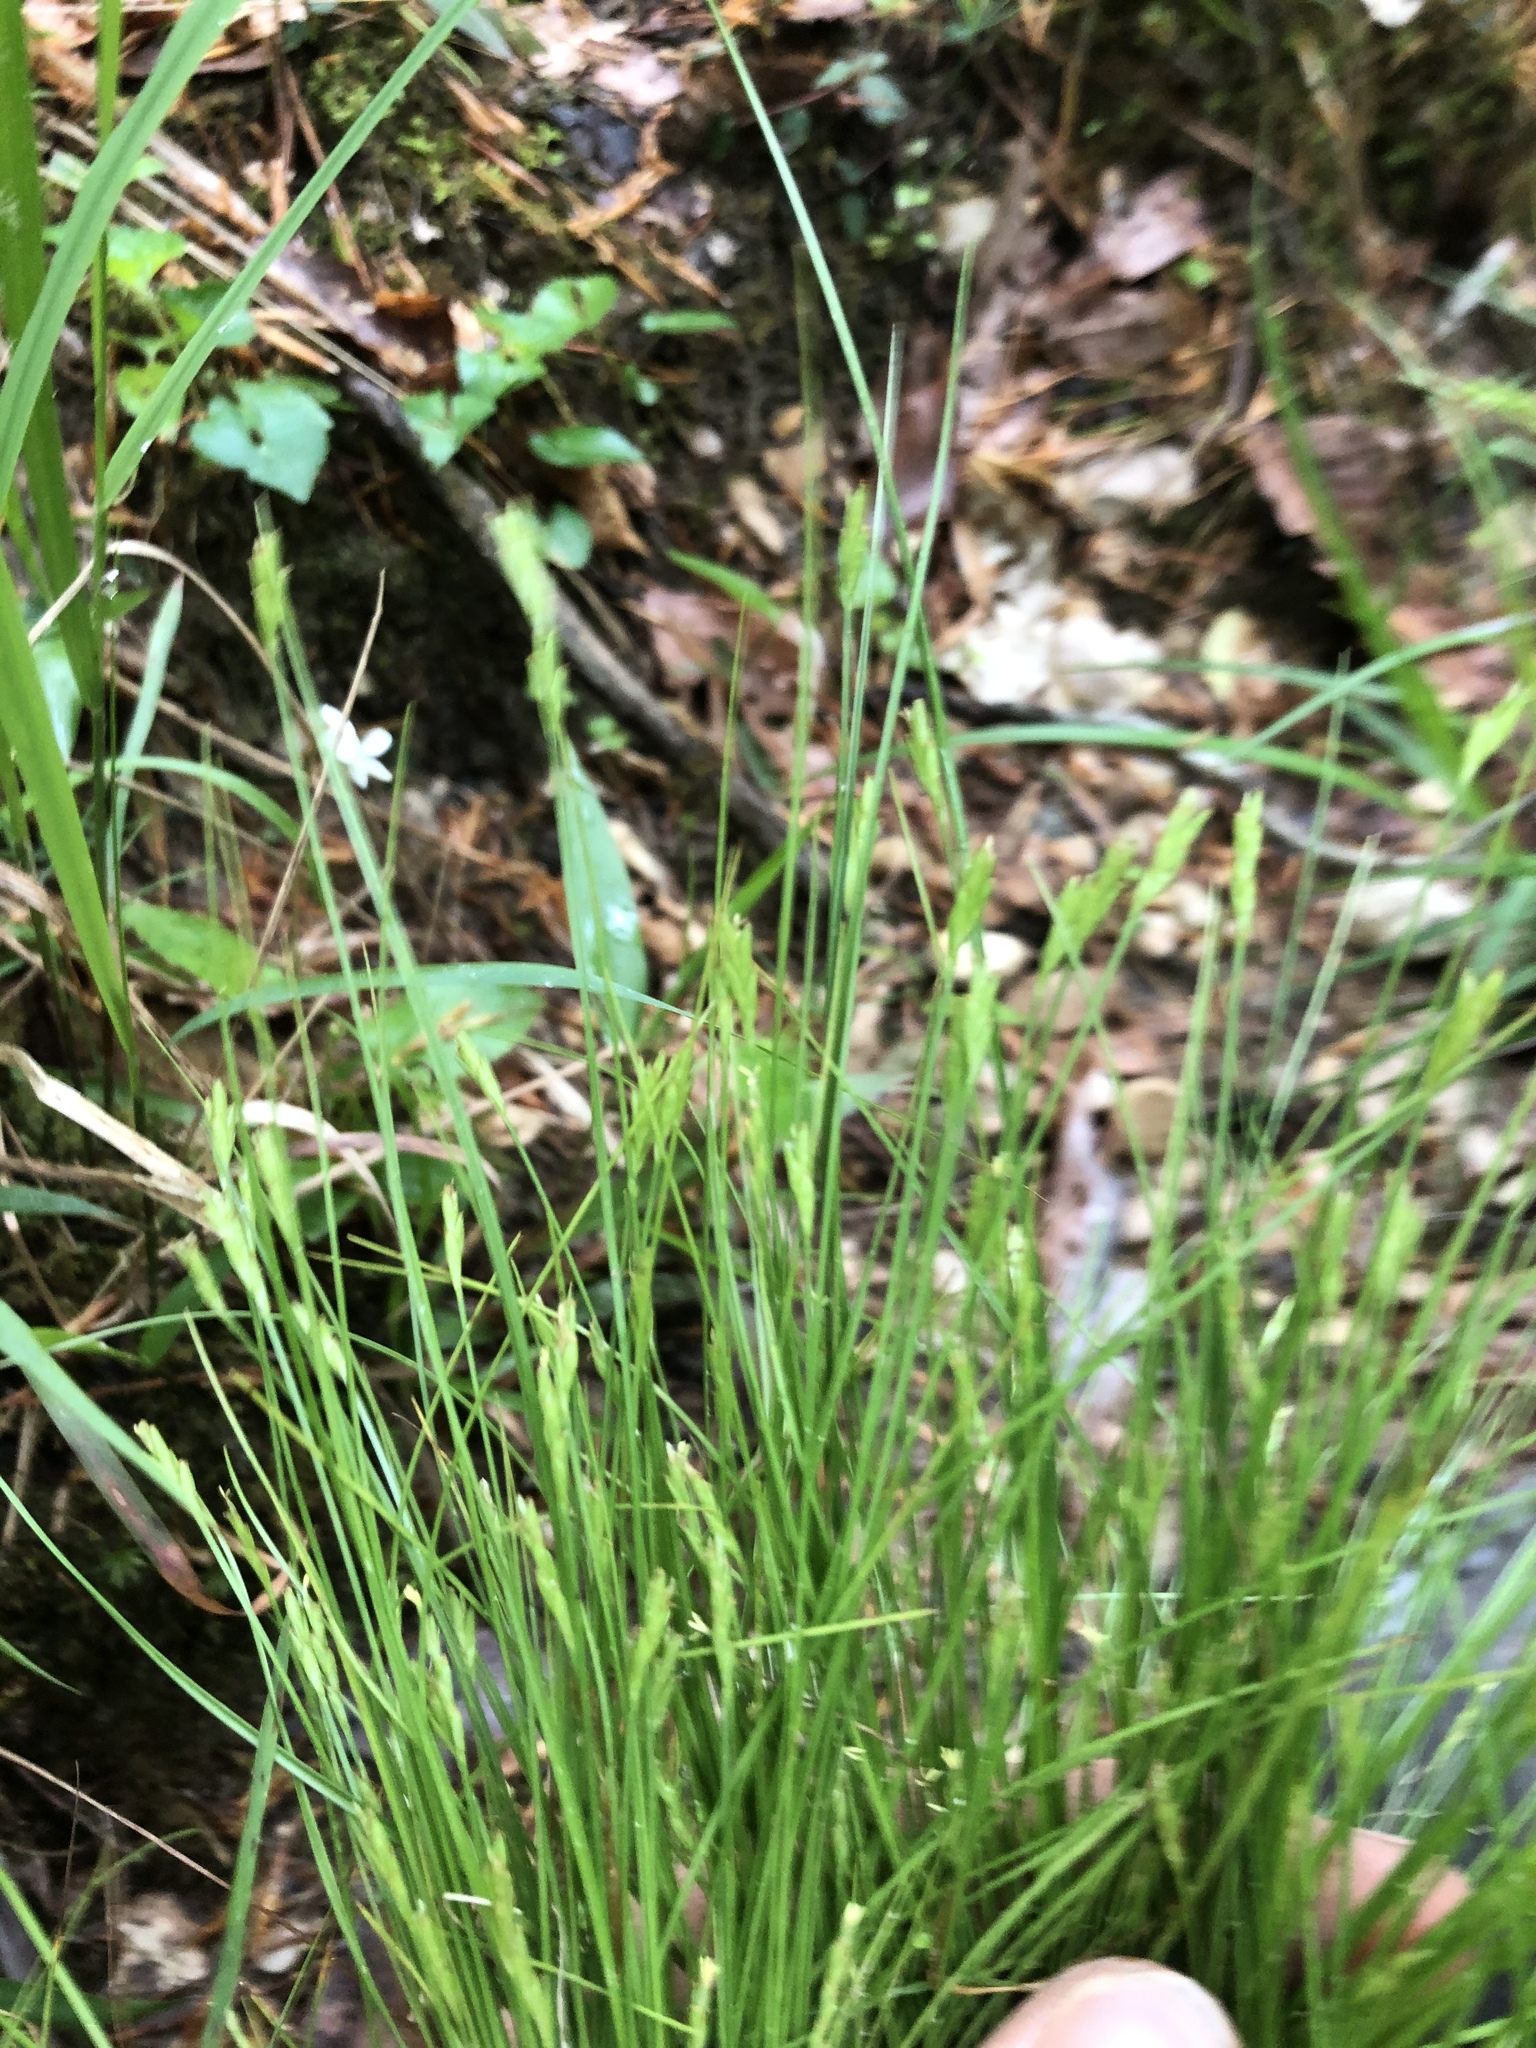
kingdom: Plantae
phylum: Tracheophyta
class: Liliopsida
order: Poales
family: Cyperaceae
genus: Carex
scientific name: Carex leptalea
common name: Bristly-stalked sedge
